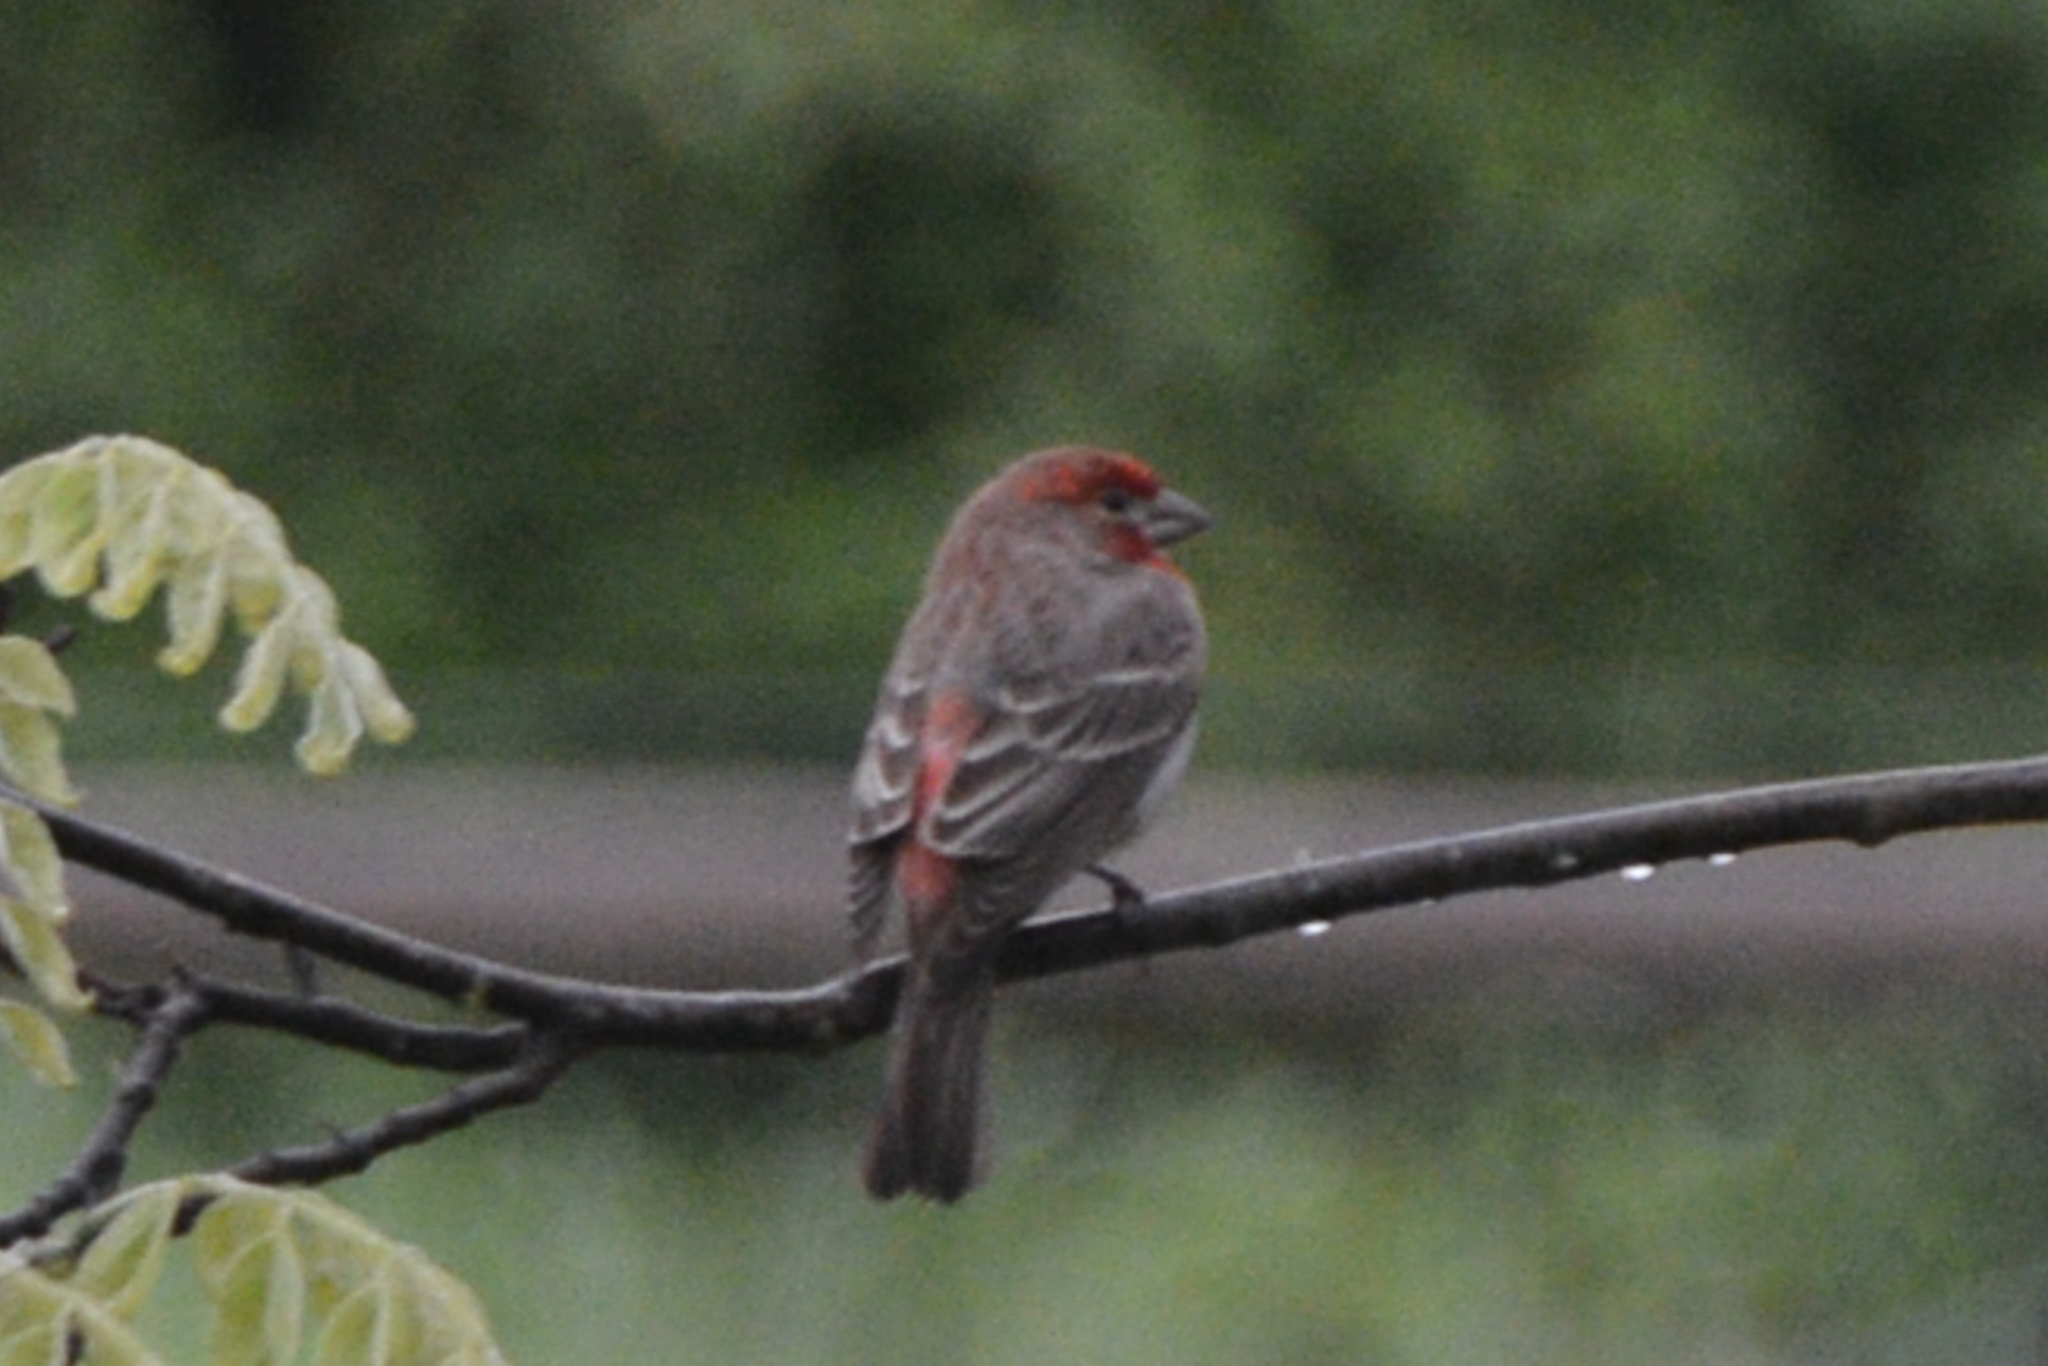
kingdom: Animalia
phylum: Chordata
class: Aves
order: Passeriformes
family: Fringillidae
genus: Haemorhous
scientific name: Haemorhous mexicanus
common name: House finch
